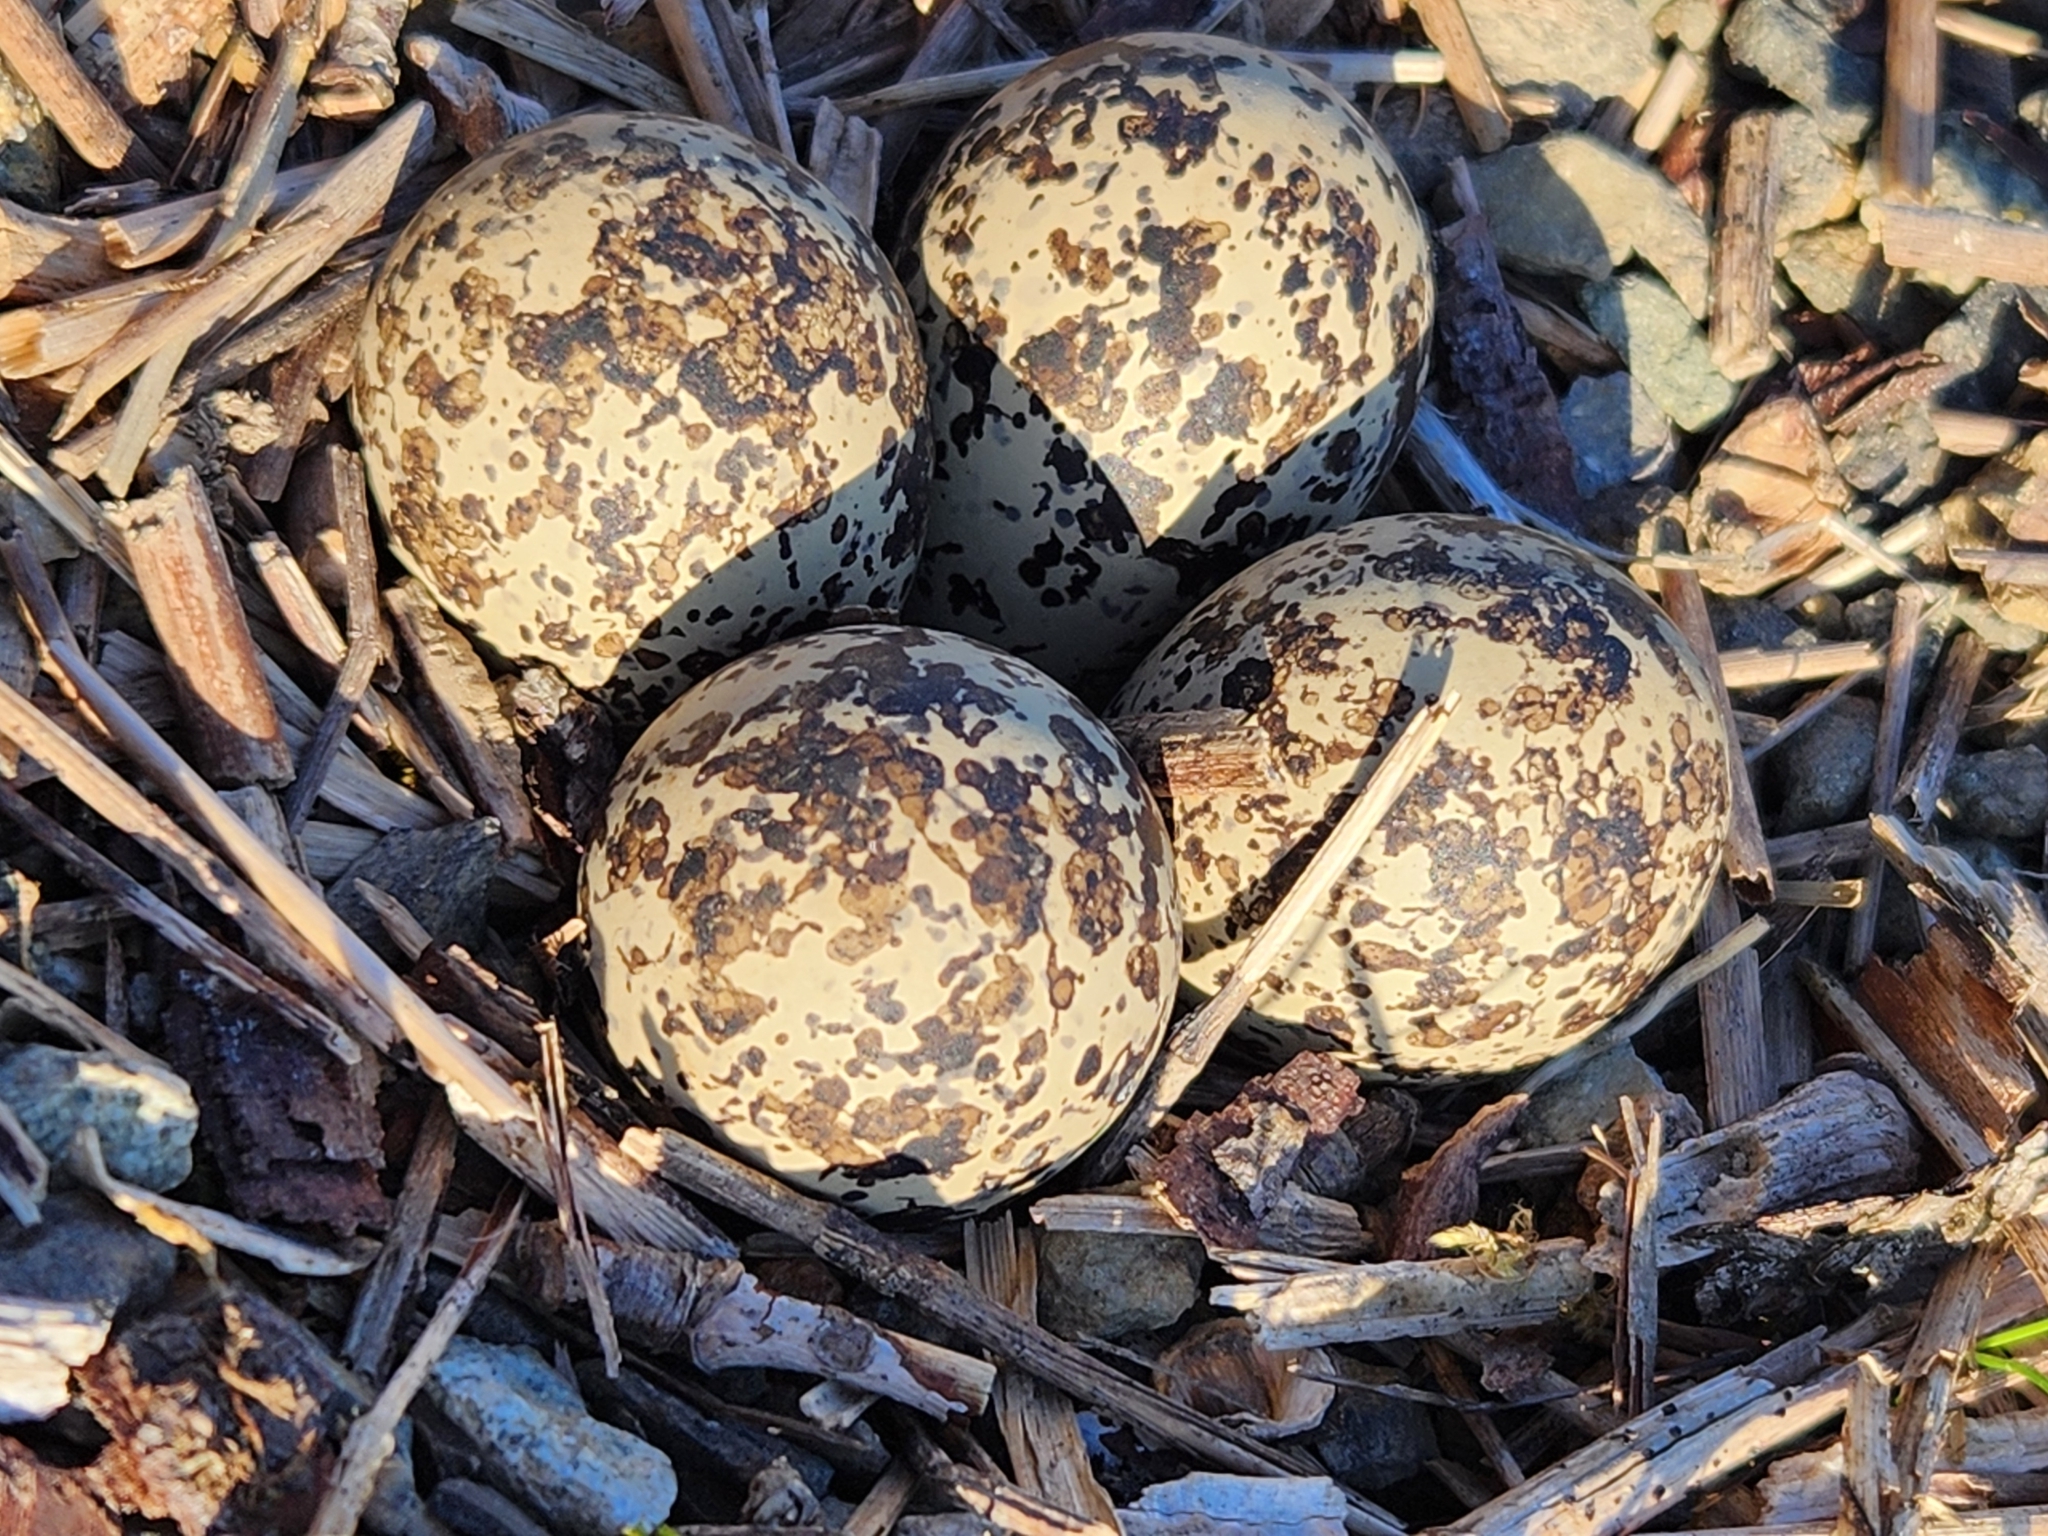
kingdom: Animalia
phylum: Chordata
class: Aves
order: Charadriiformes
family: Charadriidae
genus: Charadrius
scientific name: Charadrius vociferus
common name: Killdeer
